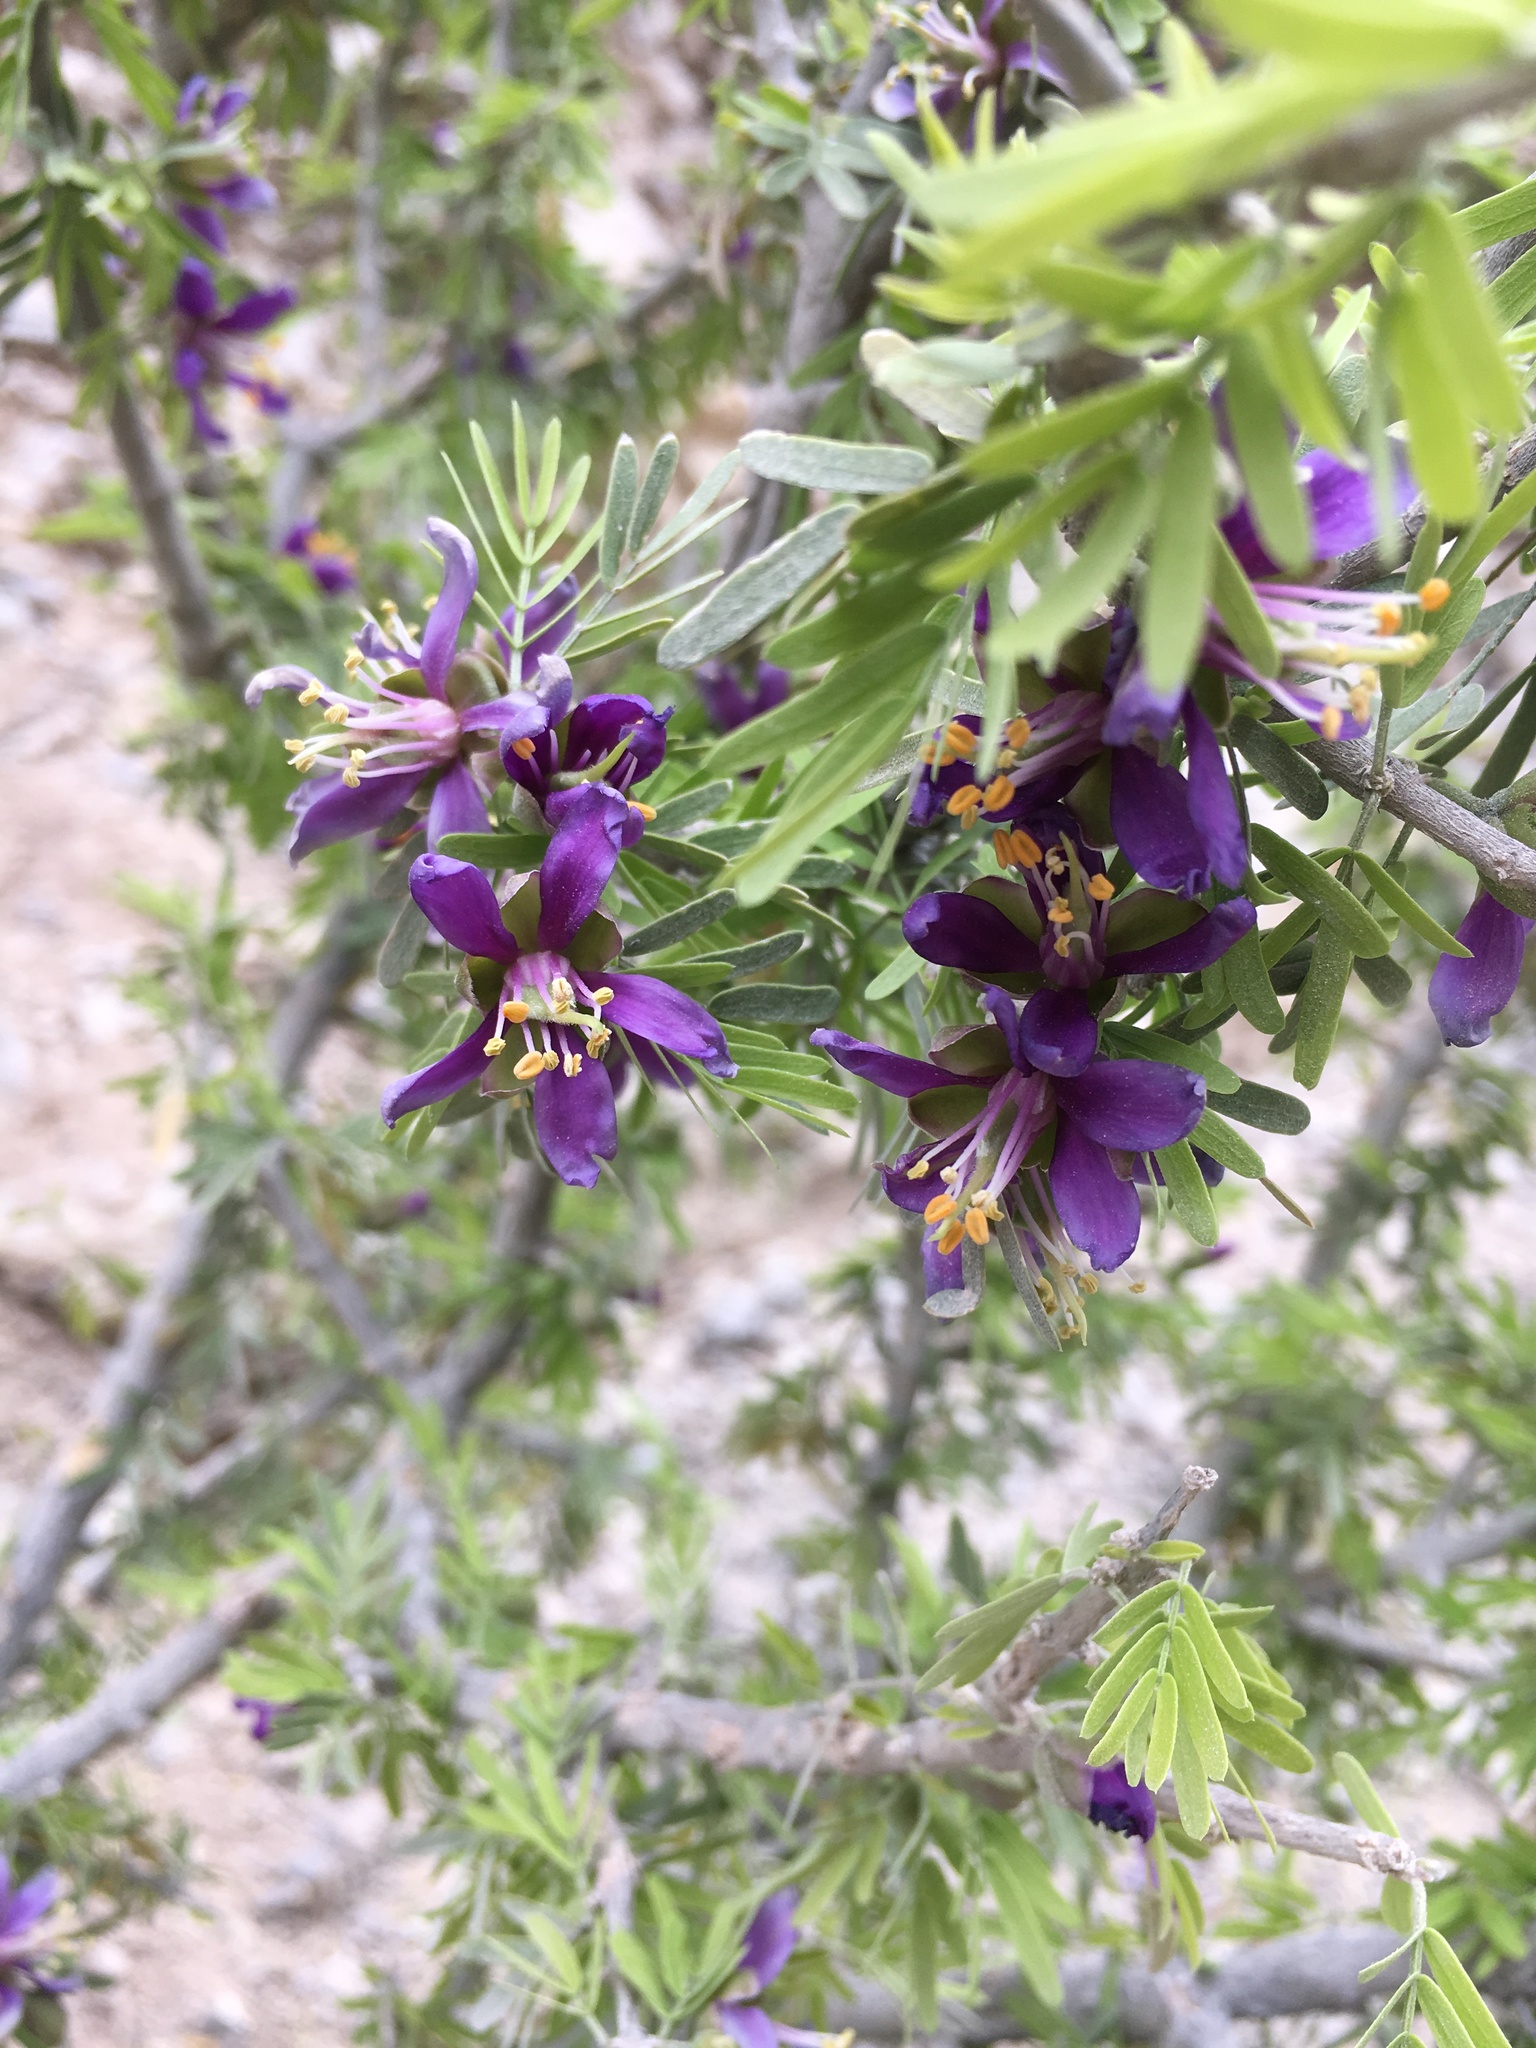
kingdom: Plantae
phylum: Tracheophyta
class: Magnoliopsida
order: Zygophyllales
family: Zygophyllaceae
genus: Porlieria
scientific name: Porlieria angustifolia
